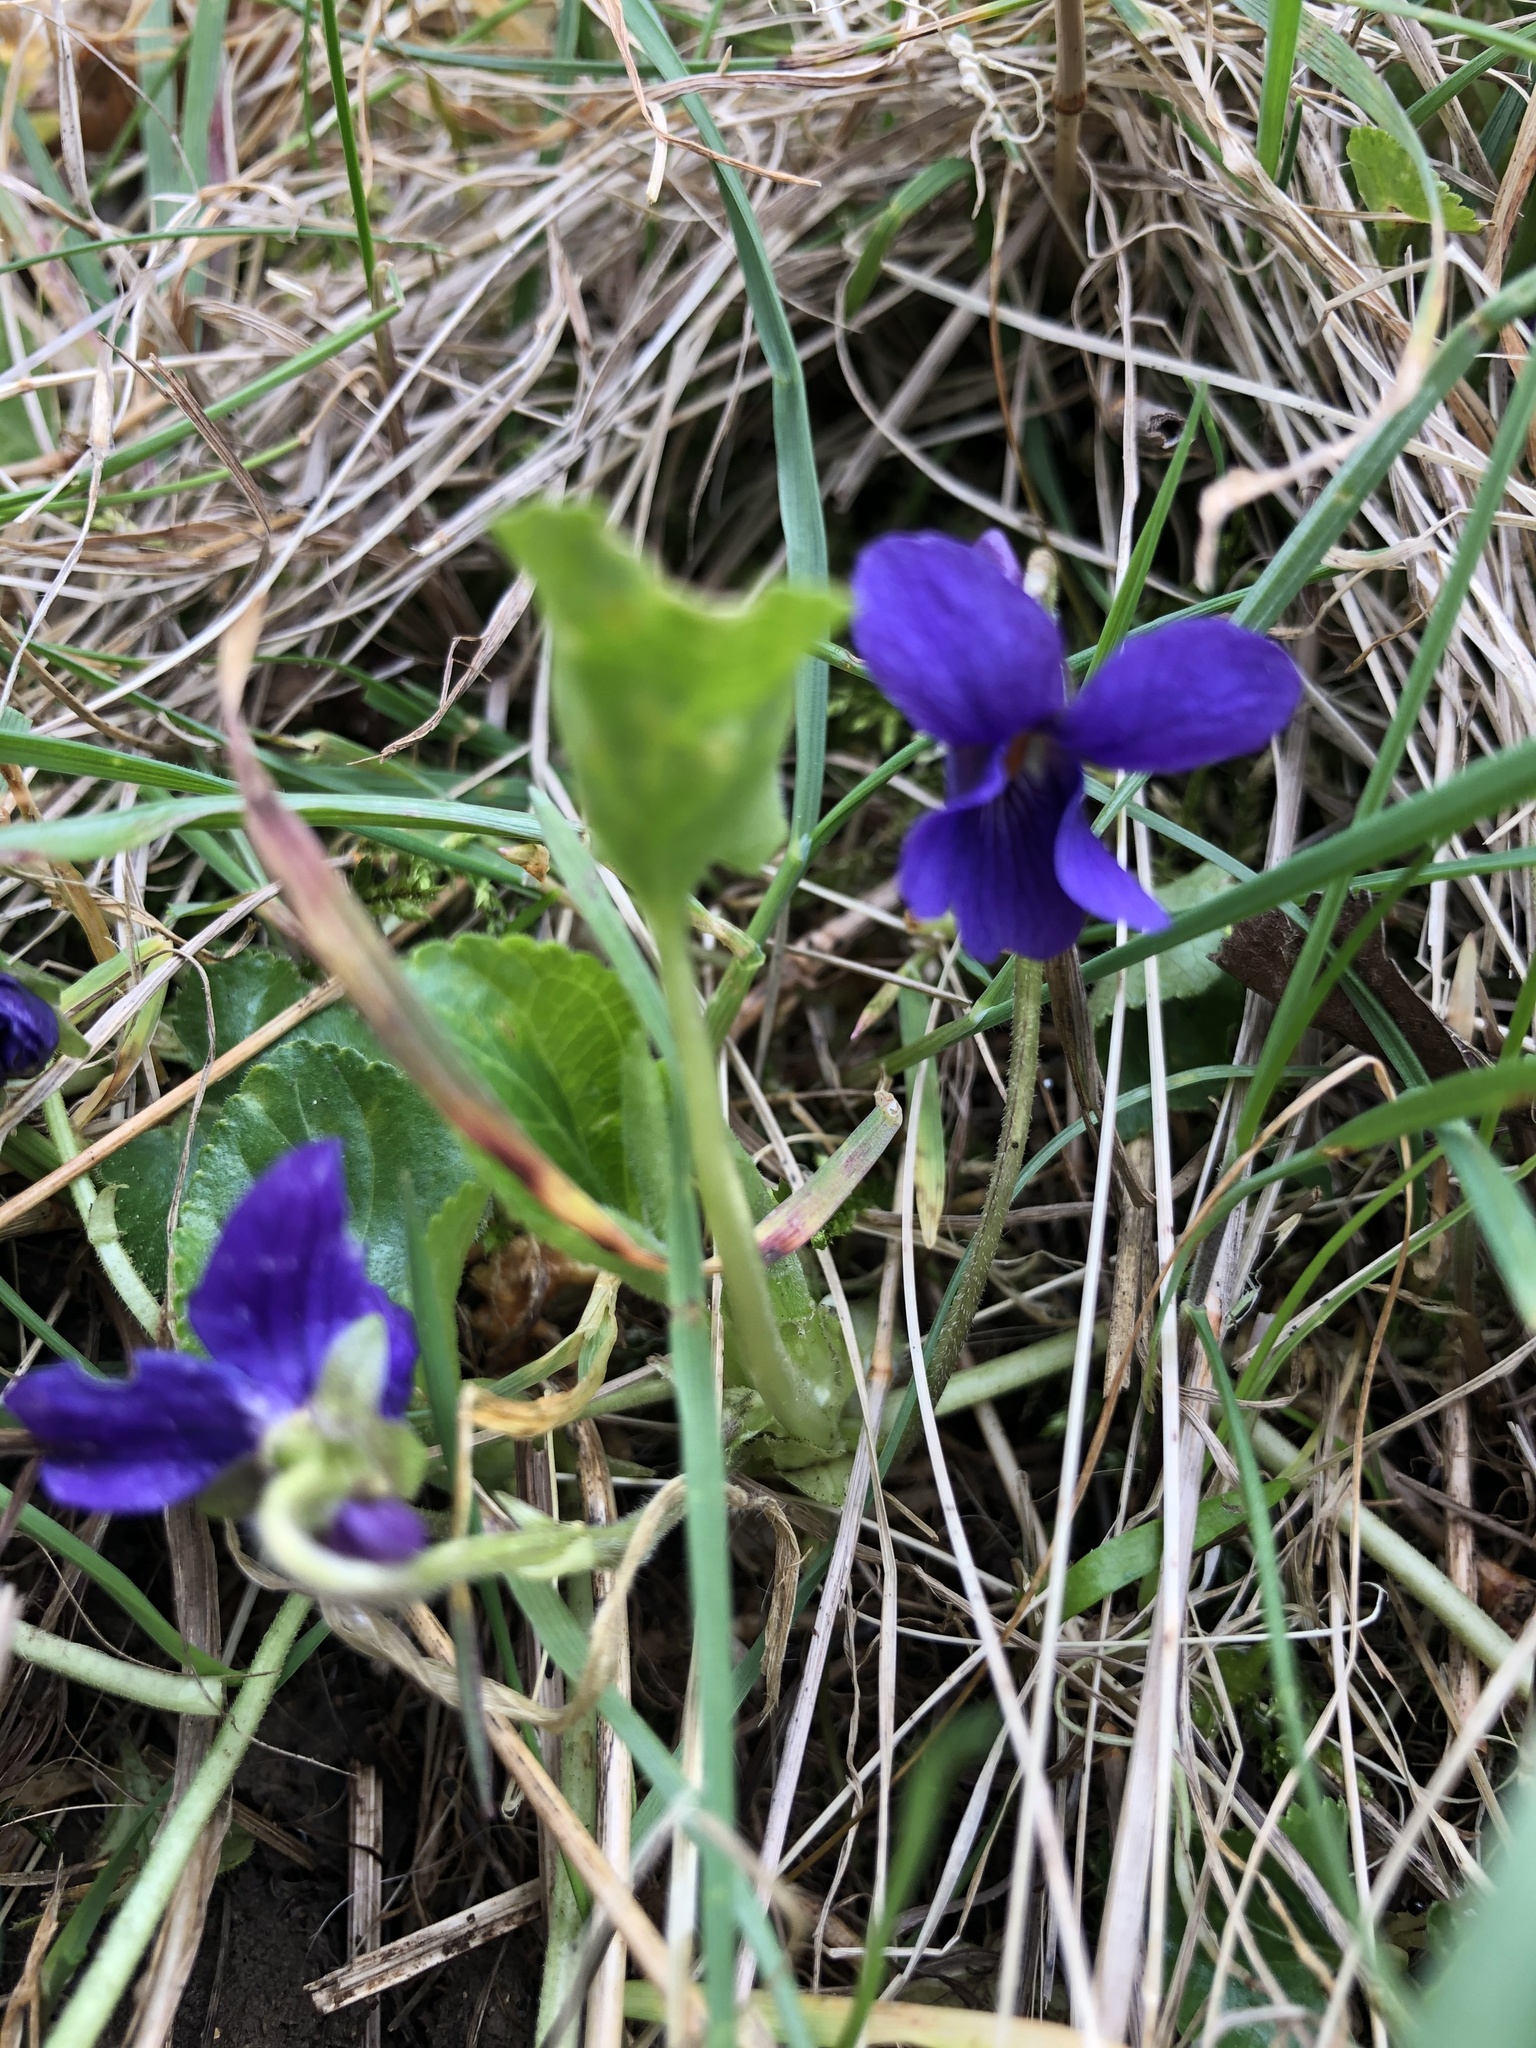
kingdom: Plantae
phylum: Tracheophyta
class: Magnoliopsida
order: Malpighiales
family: Violaceae
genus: Viola
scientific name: Viola odorata
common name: Sweet violet
